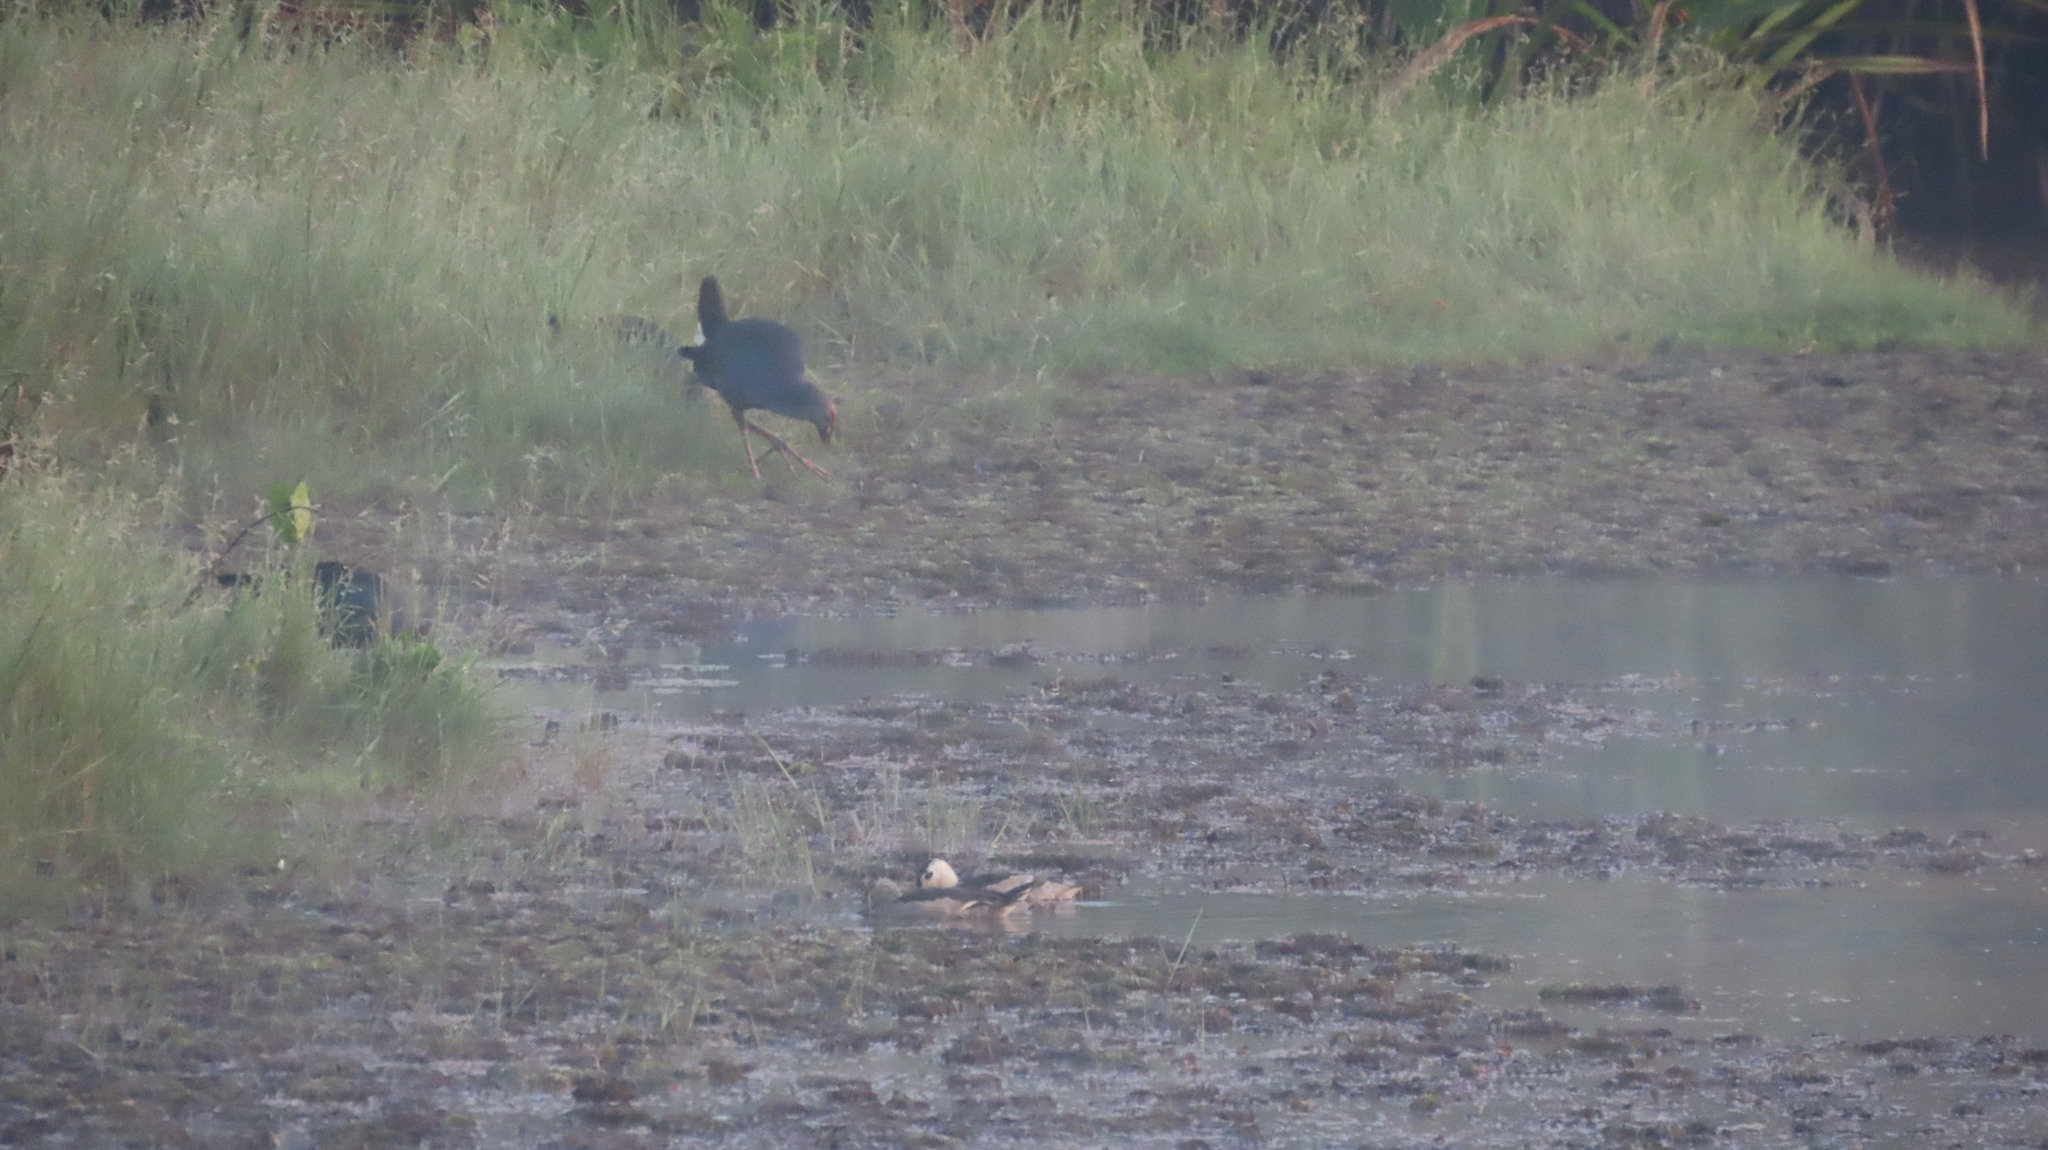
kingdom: Animalia
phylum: Chordata
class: Aves
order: Anseriformes
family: Anatidae
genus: Nettapus
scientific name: Nettapus coromandelianus
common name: Cotton pygmy-goose
